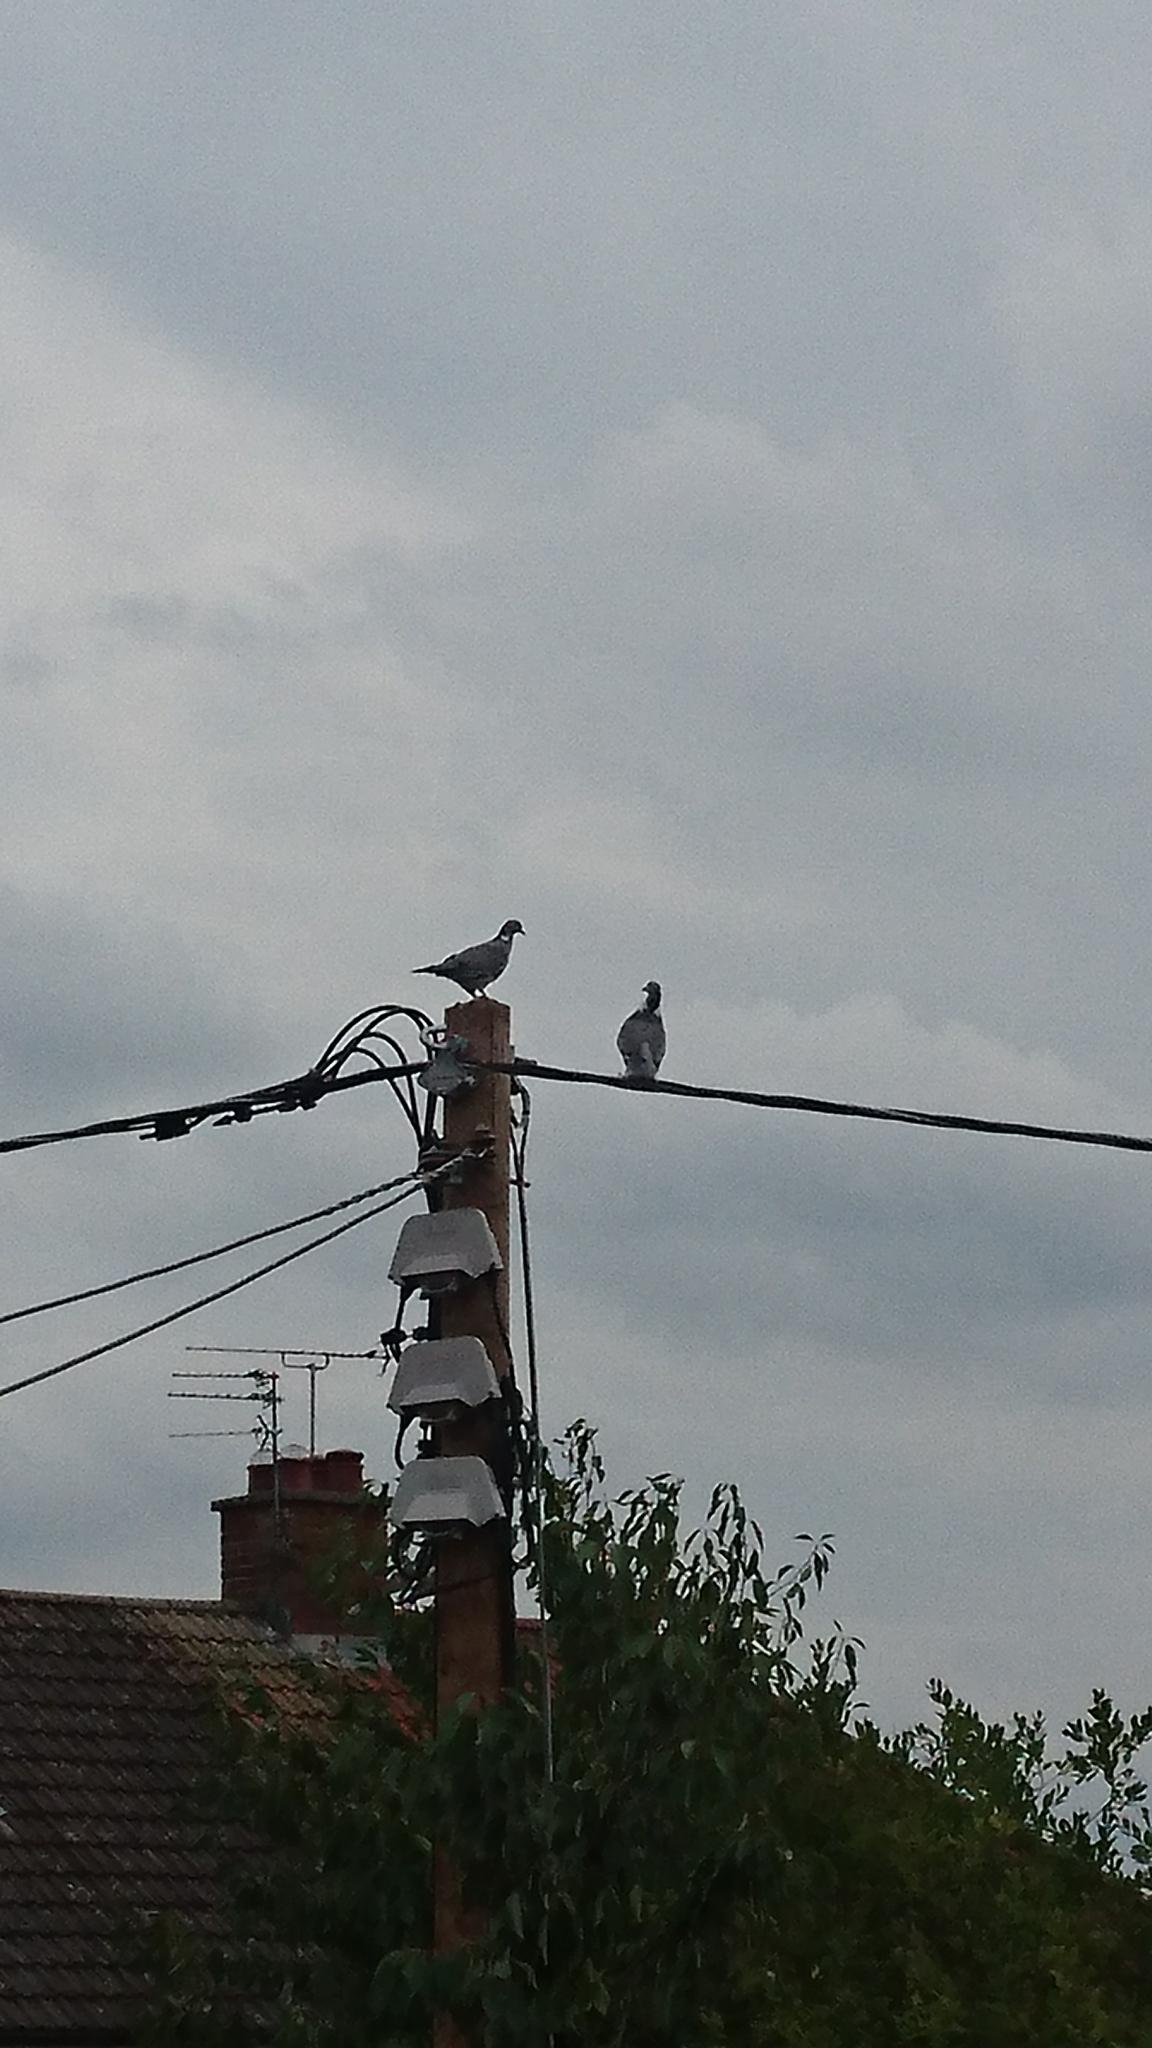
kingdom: Animalia
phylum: Chordata
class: Aves
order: Columbiformes
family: Columbidae
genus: Columba
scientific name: Columba palumbus
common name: Common wood pigeon
